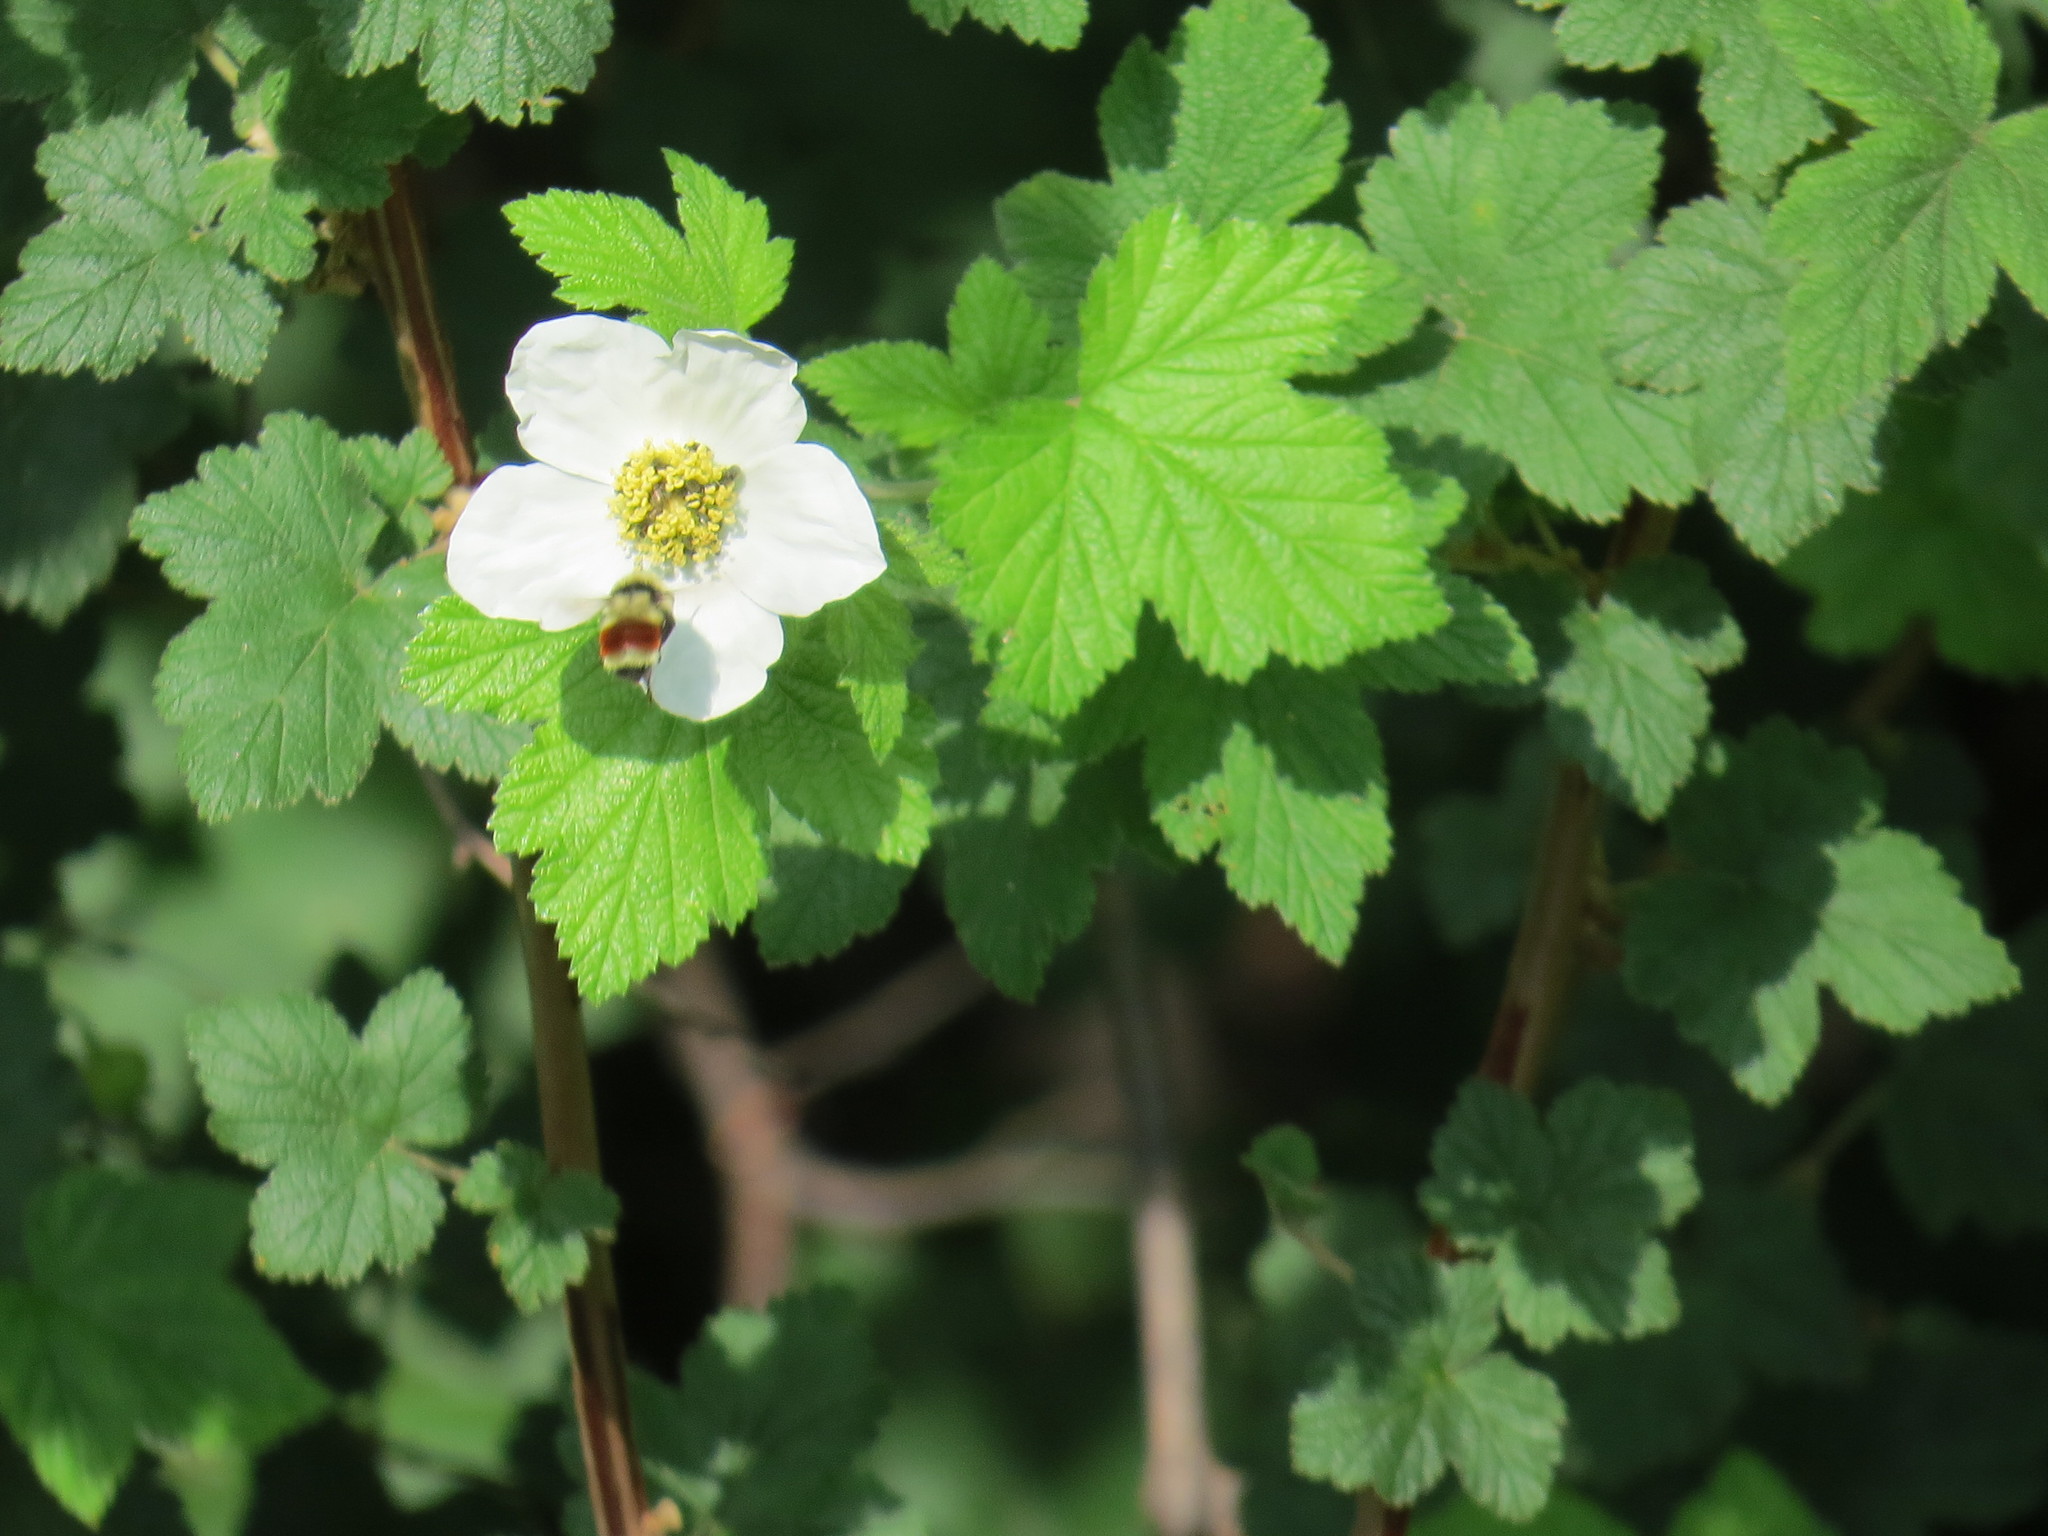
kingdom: Plantae
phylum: Tracheophyta
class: Magnoliopsida
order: Rosales
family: Rosaceae
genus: Rubus
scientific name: Rubus neomexicanus
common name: New mexico raspberry
